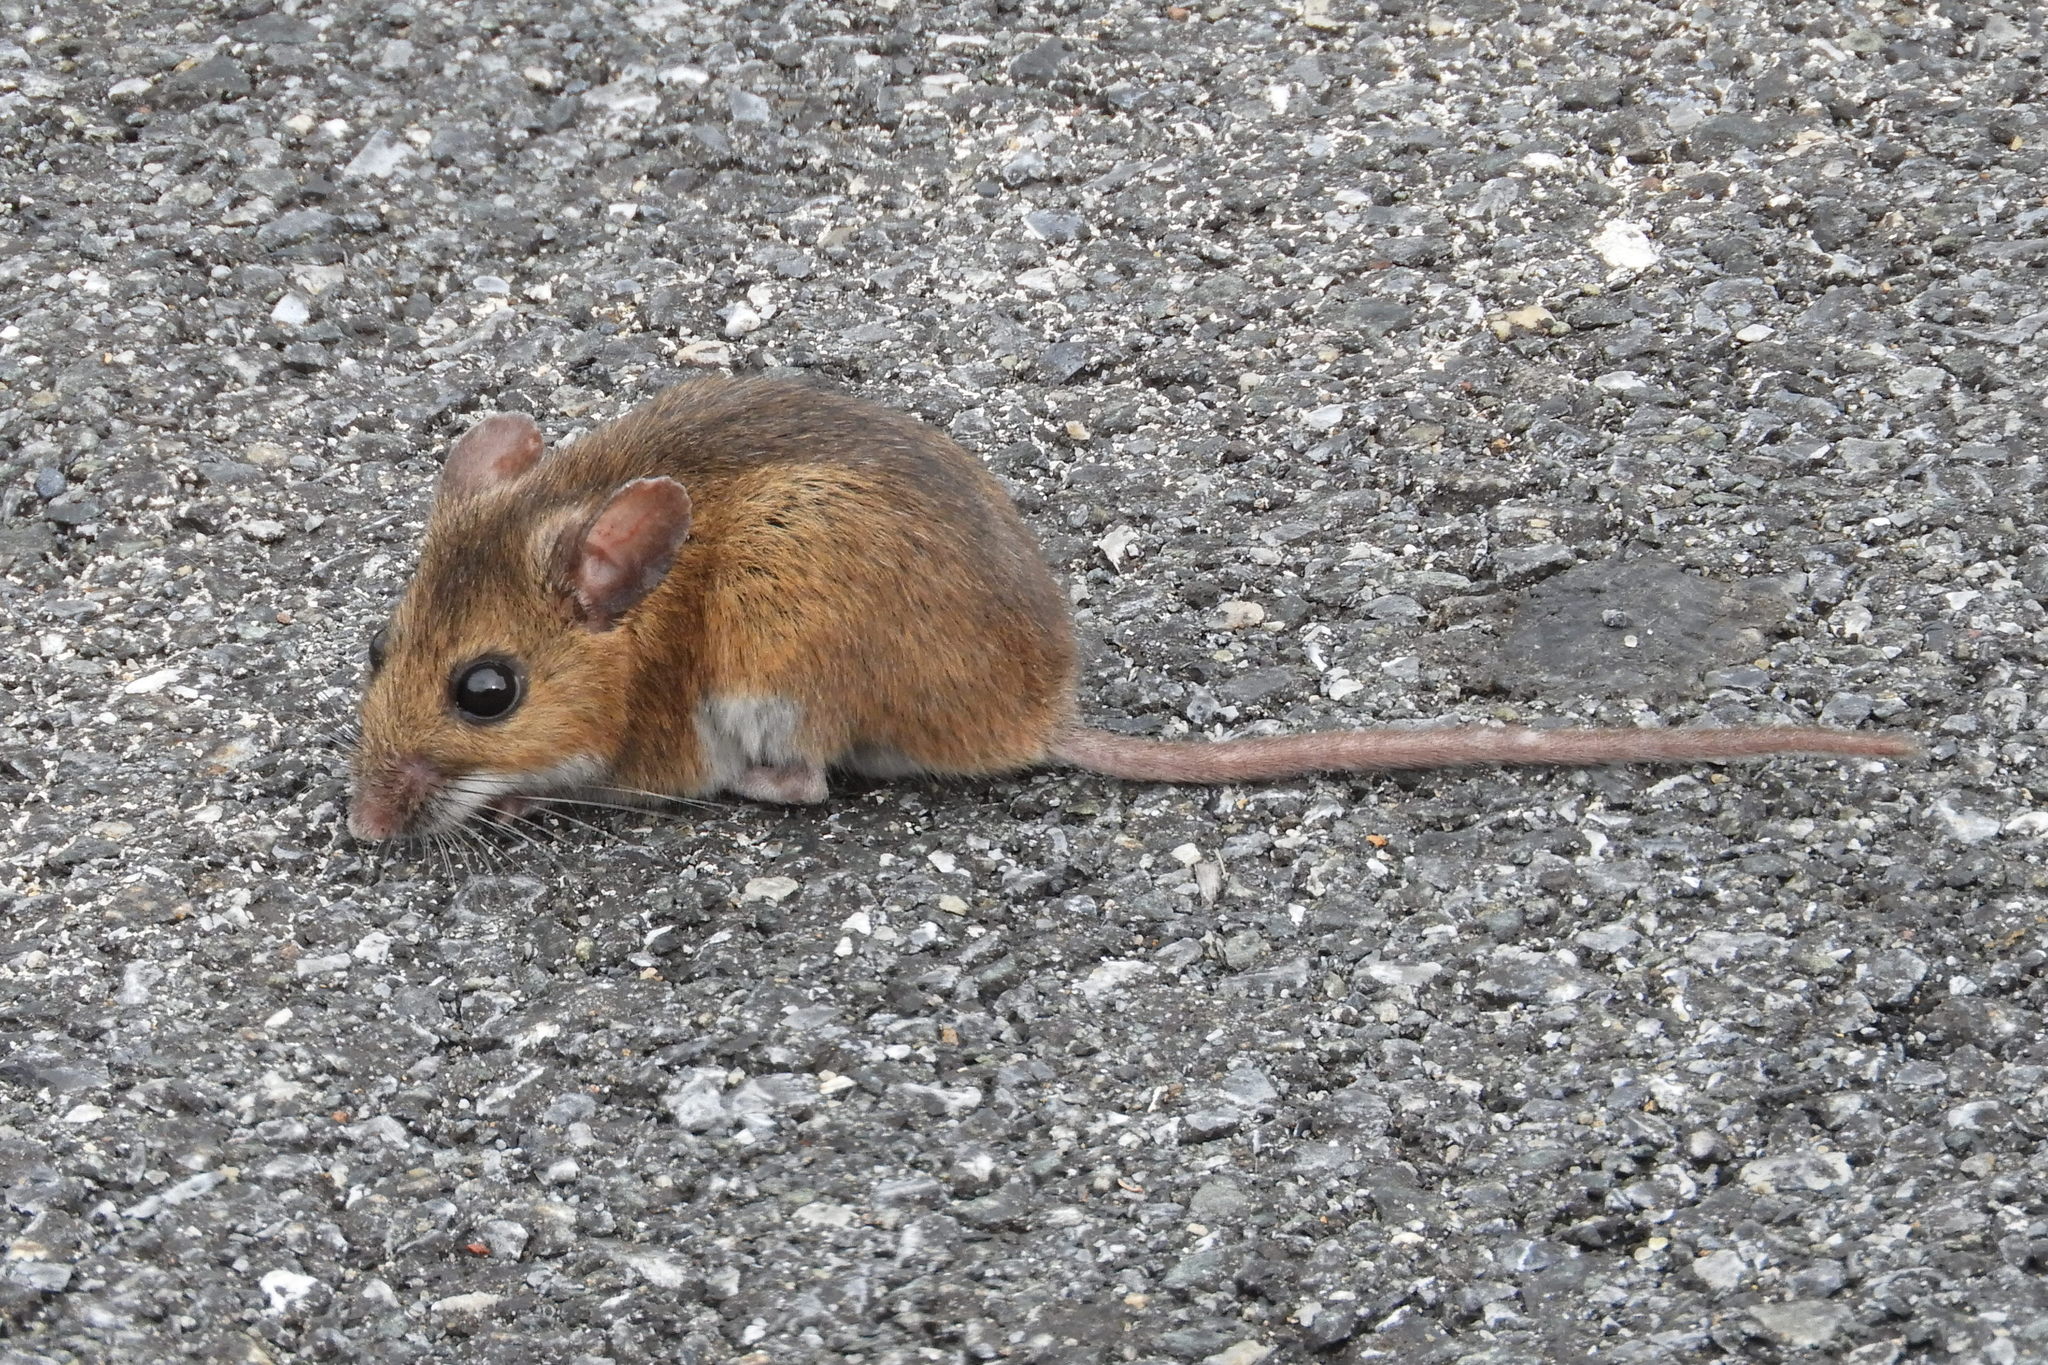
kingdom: Animalia
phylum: Chordata
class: Mammalia
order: Rodentia
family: Cricetidae
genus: Peromyscus
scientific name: Peromyscus leucopus
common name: White-footed deermouse
